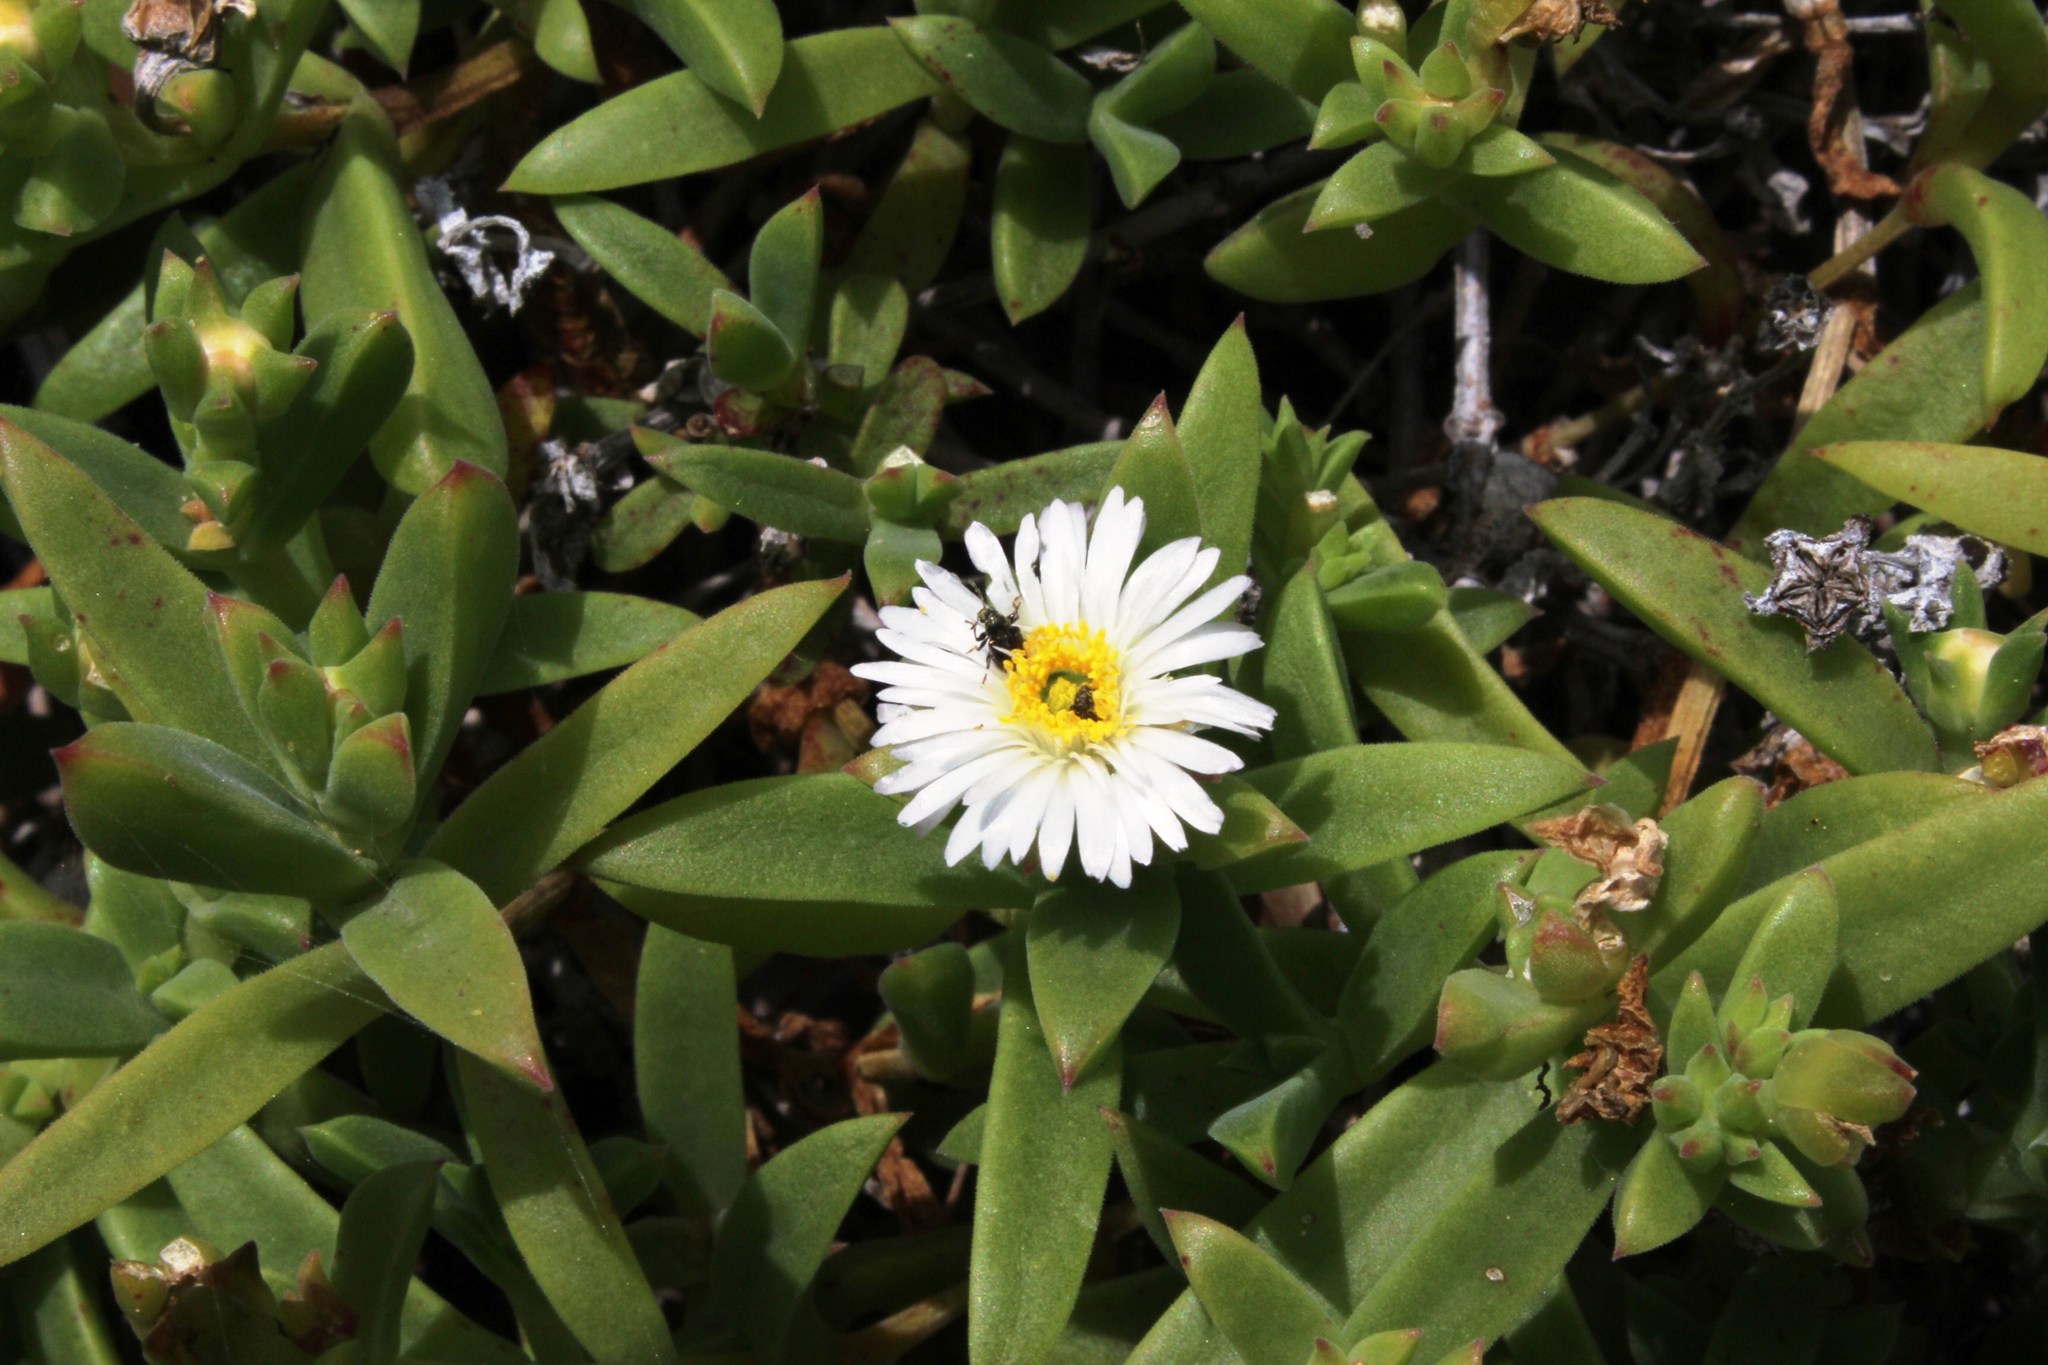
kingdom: Plantae
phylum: Tracheophyta
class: Magnoliopsida
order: Caryophyllales
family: Aizoaceae
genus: Delosperma
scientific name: Delosperma patersoniae
